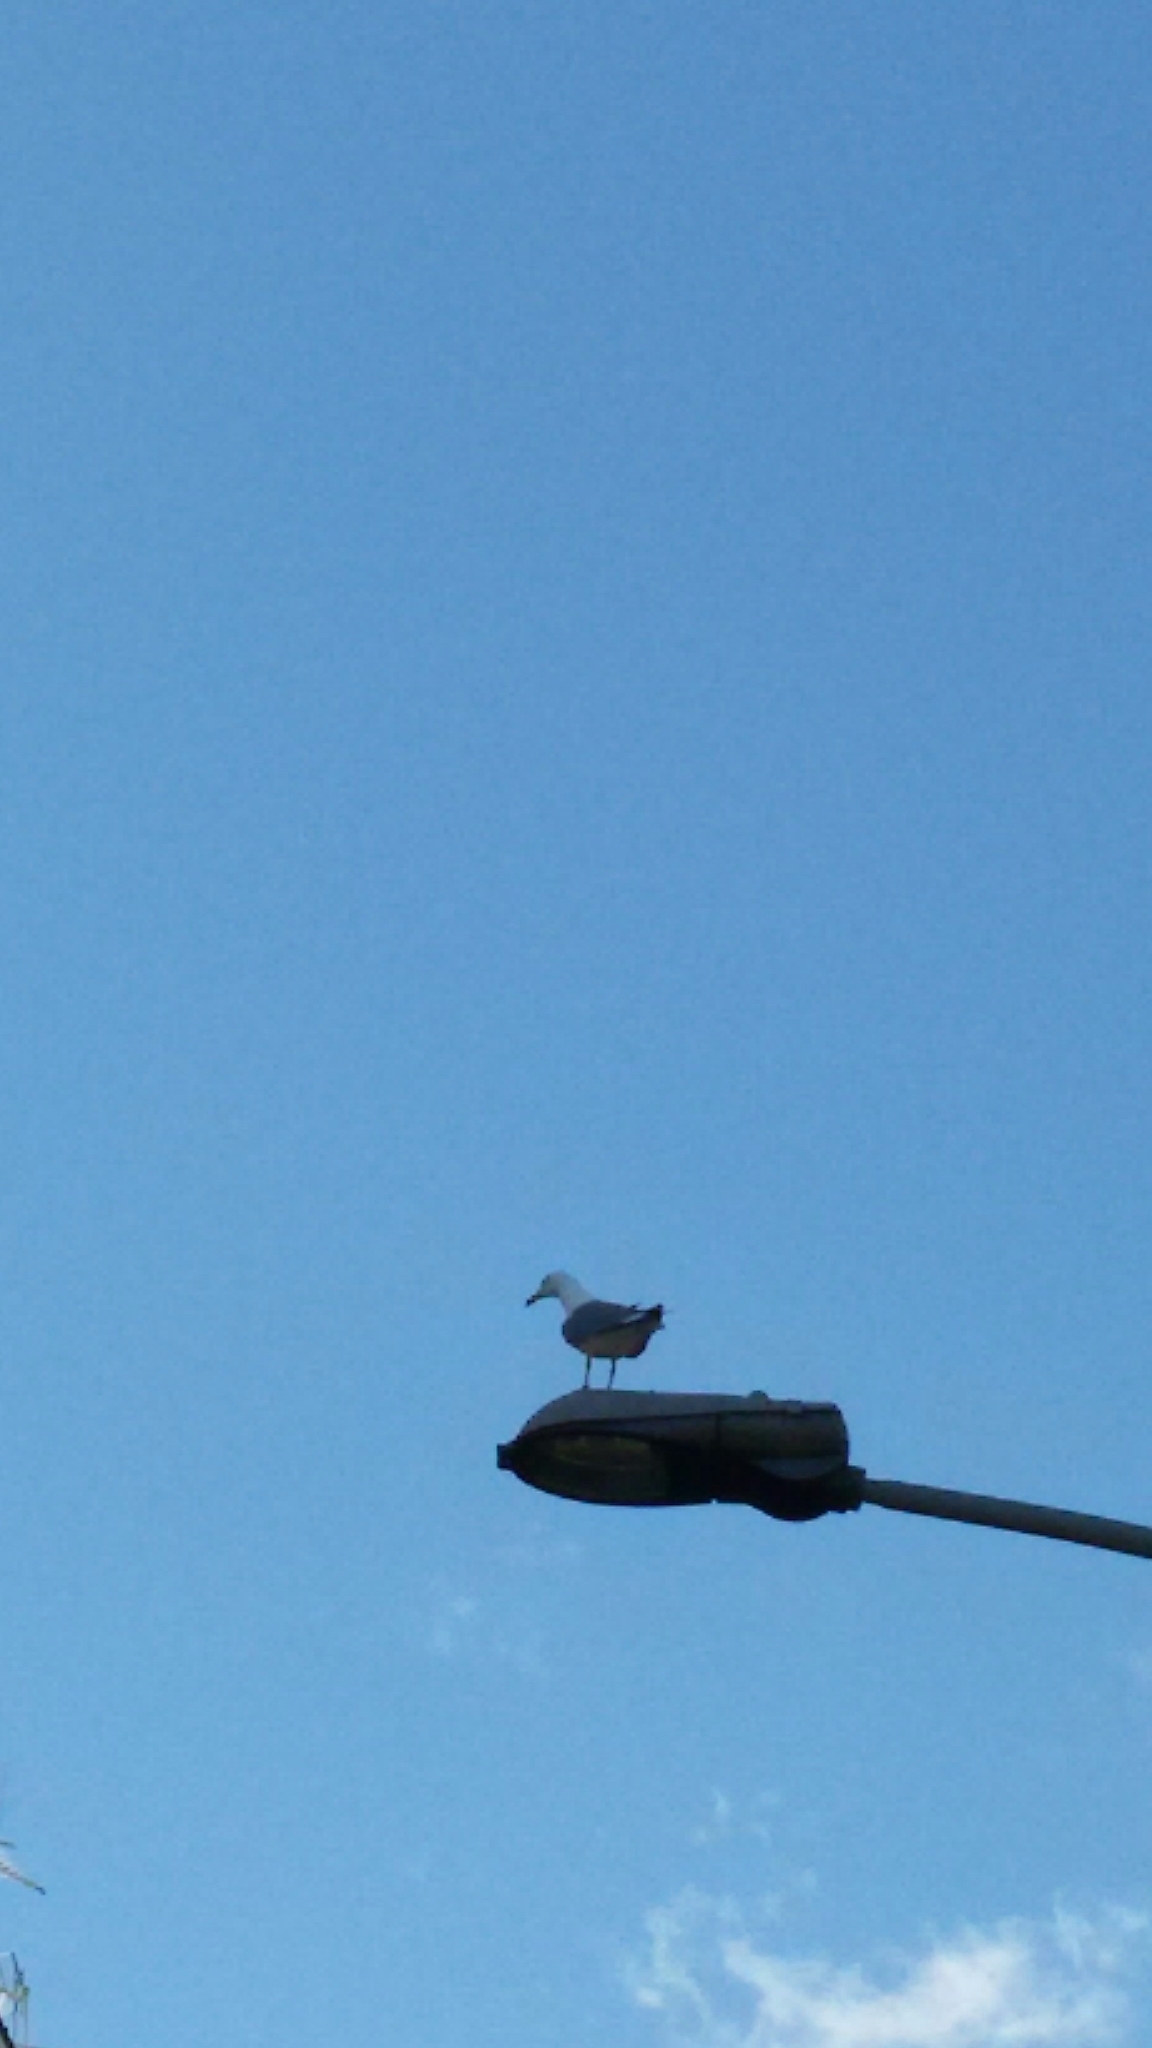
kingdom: Animalia
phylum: Chordata
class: Aves
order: Charadriiformes
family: Laridae
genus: Larus
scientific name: Larus michahellis
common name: Yellow-legged gull
